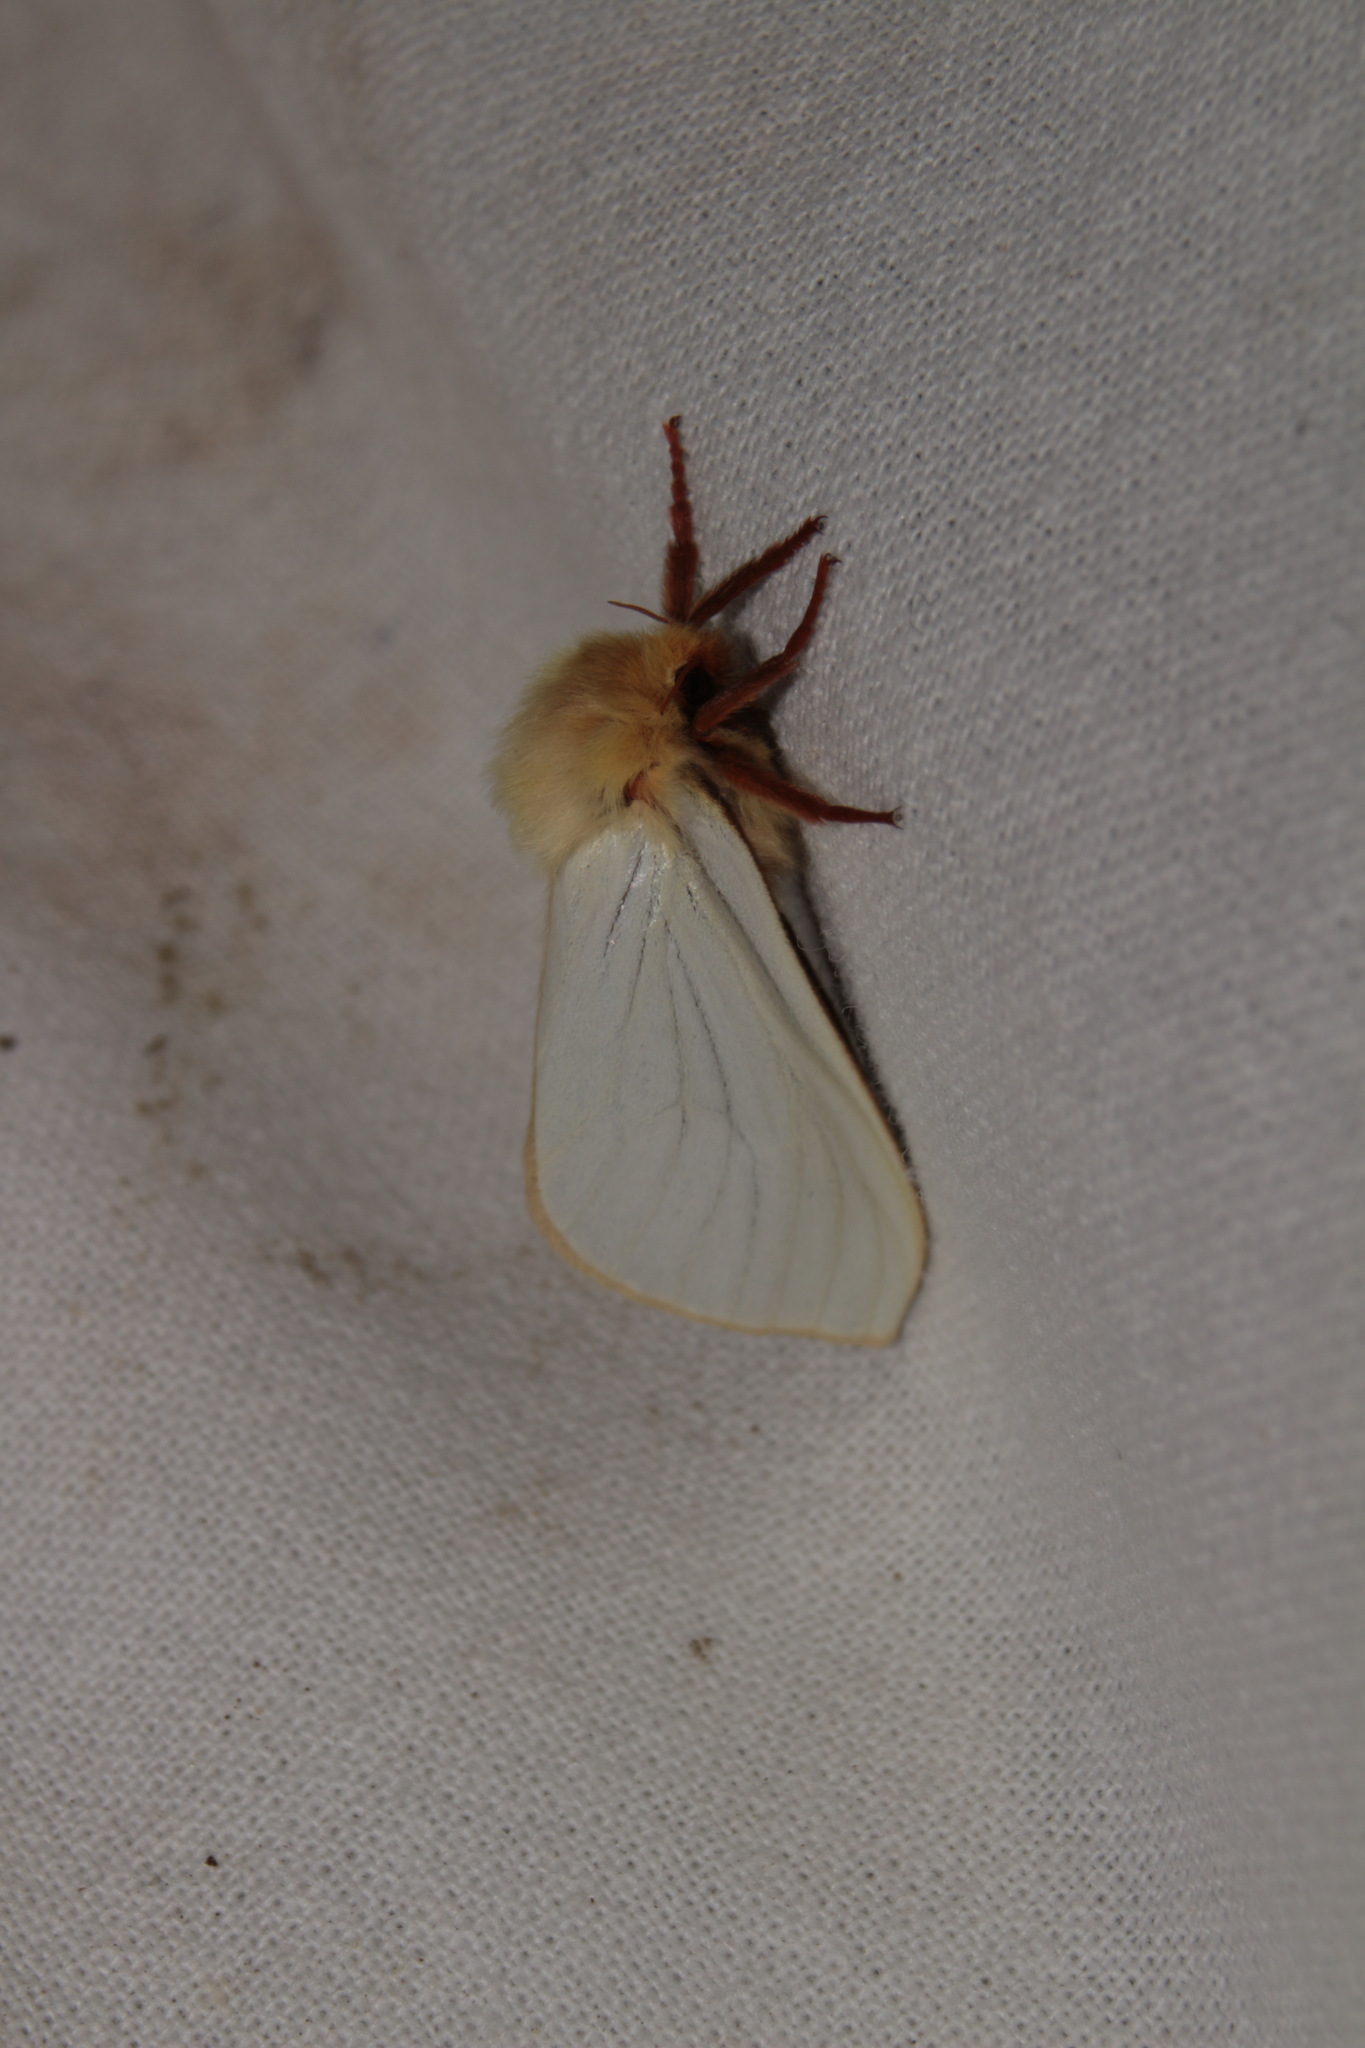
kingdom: Animalia
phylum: Arthropoda
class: Insecta
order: Lepidoptera
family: Hepialidae
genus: Hepialus
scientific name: Hepialus humuli
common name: Ghost moth
